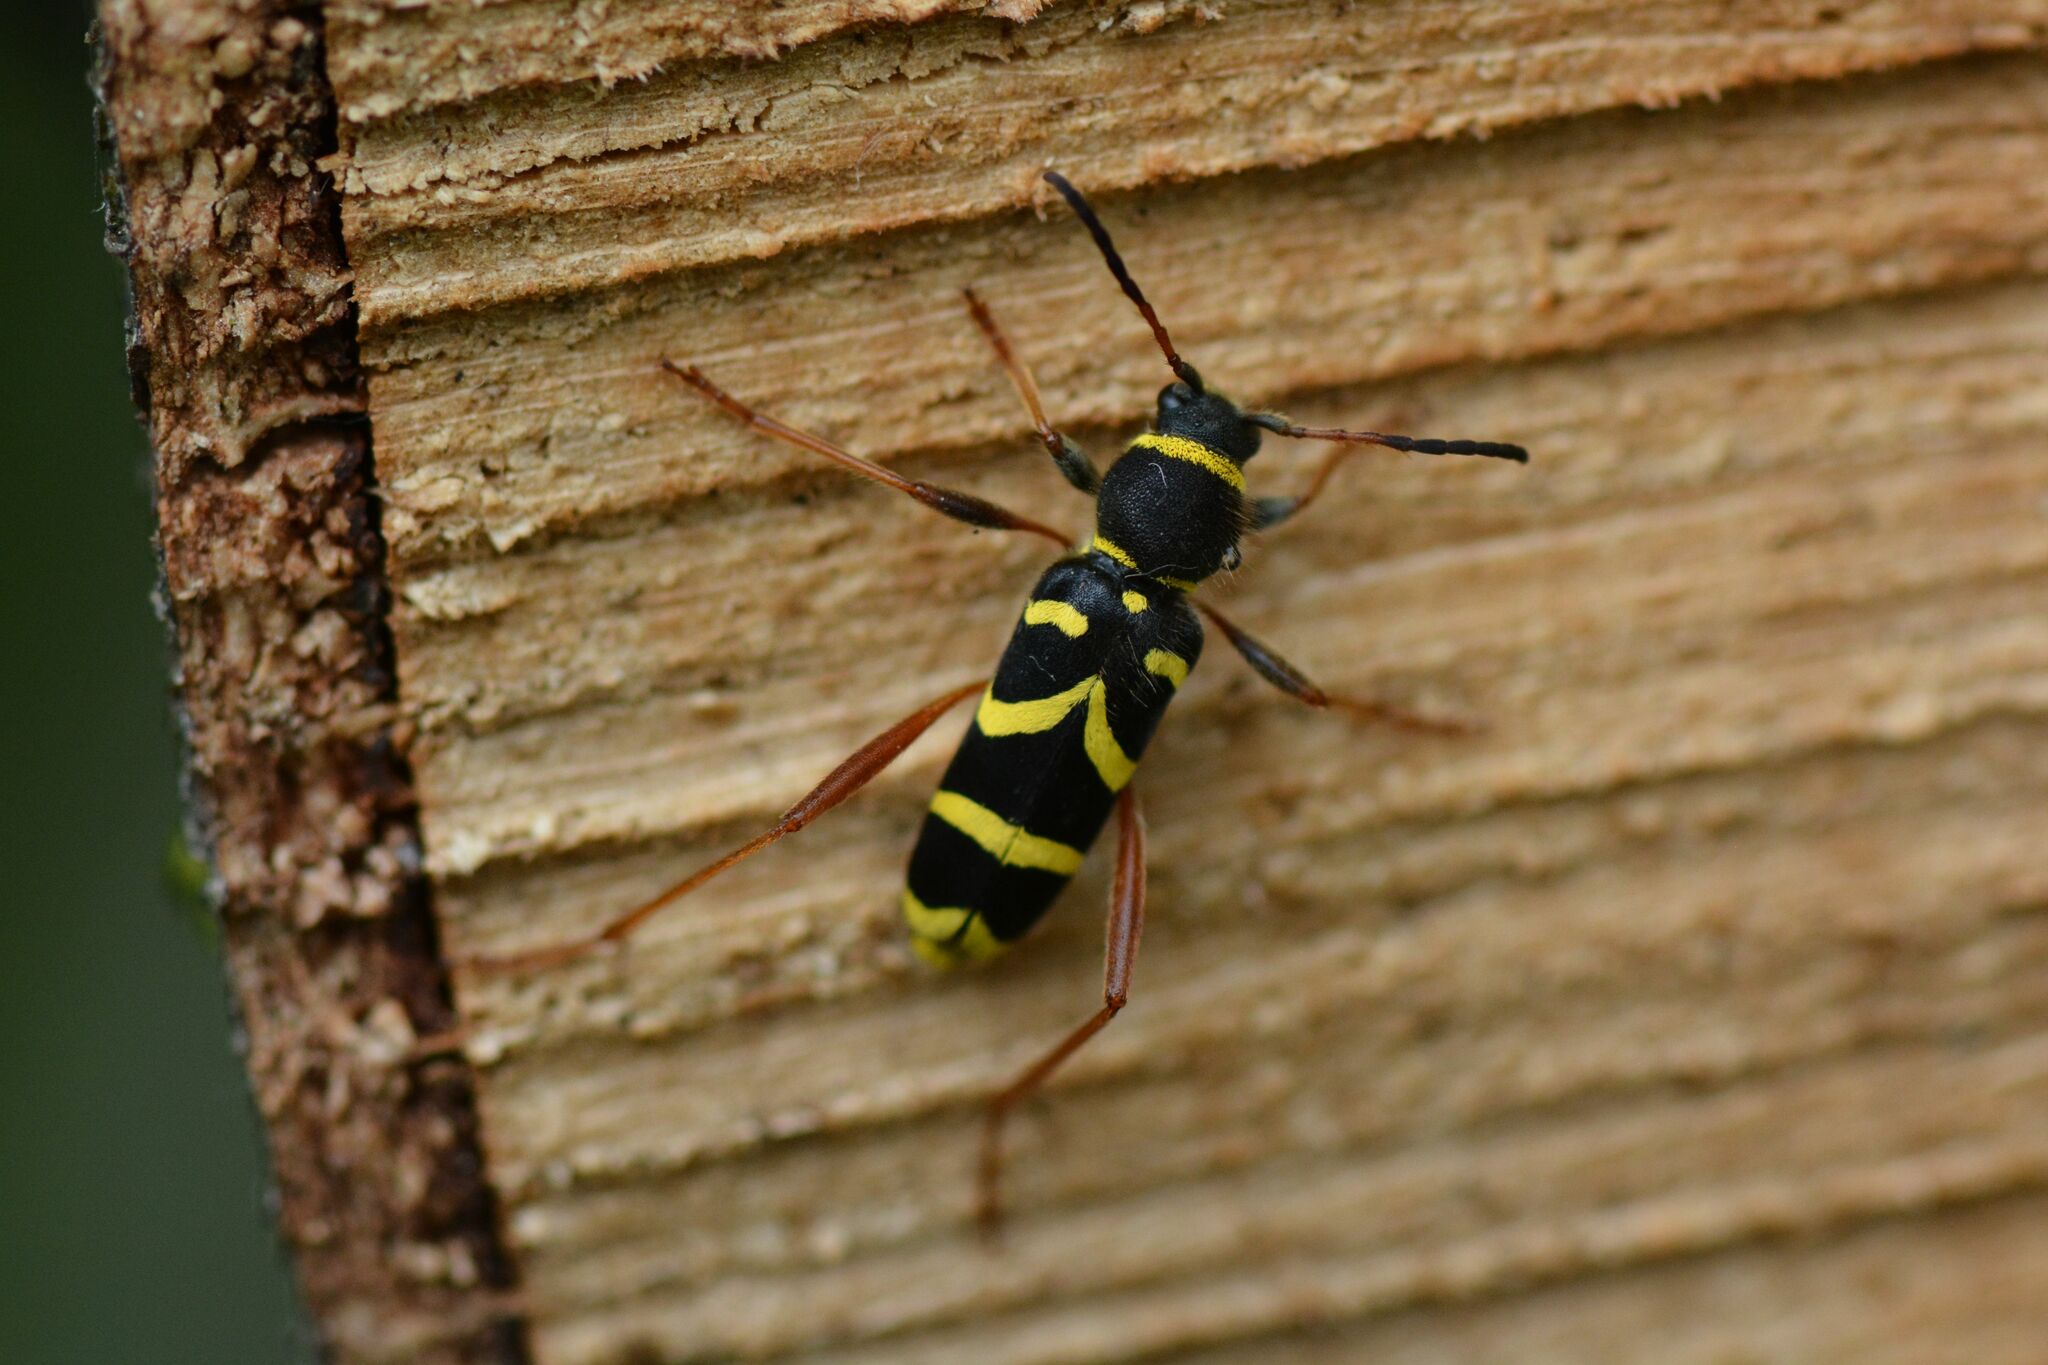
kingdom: Animalia
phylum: Arthropoda
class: Insecta
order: Coleoptera
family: Cerambycidae
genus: Clytus
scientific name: Clytus arietis
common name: Wasp beetle
